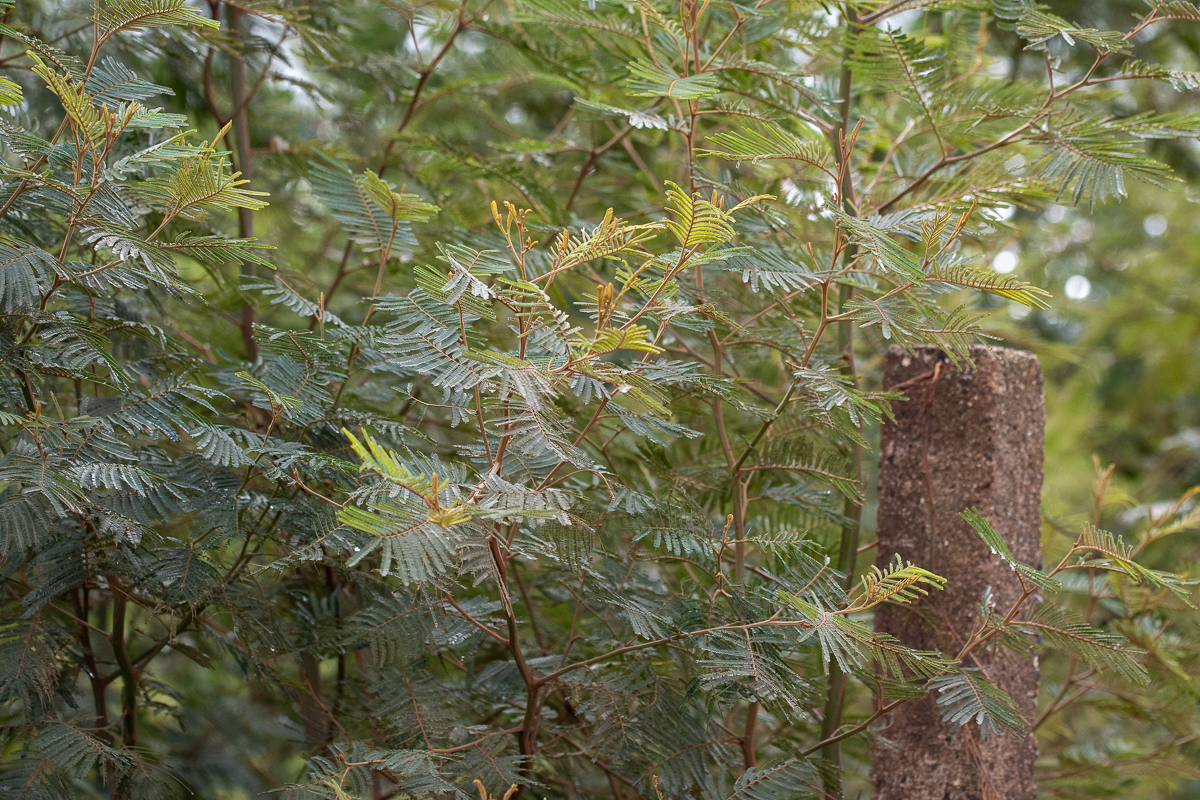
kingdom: Plantae
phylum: Tracheophyta
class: Magnoliopsida
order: Fabales
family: Fabaceae
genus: Acacia
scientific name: Acacia mearnsii
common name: Black wattle
